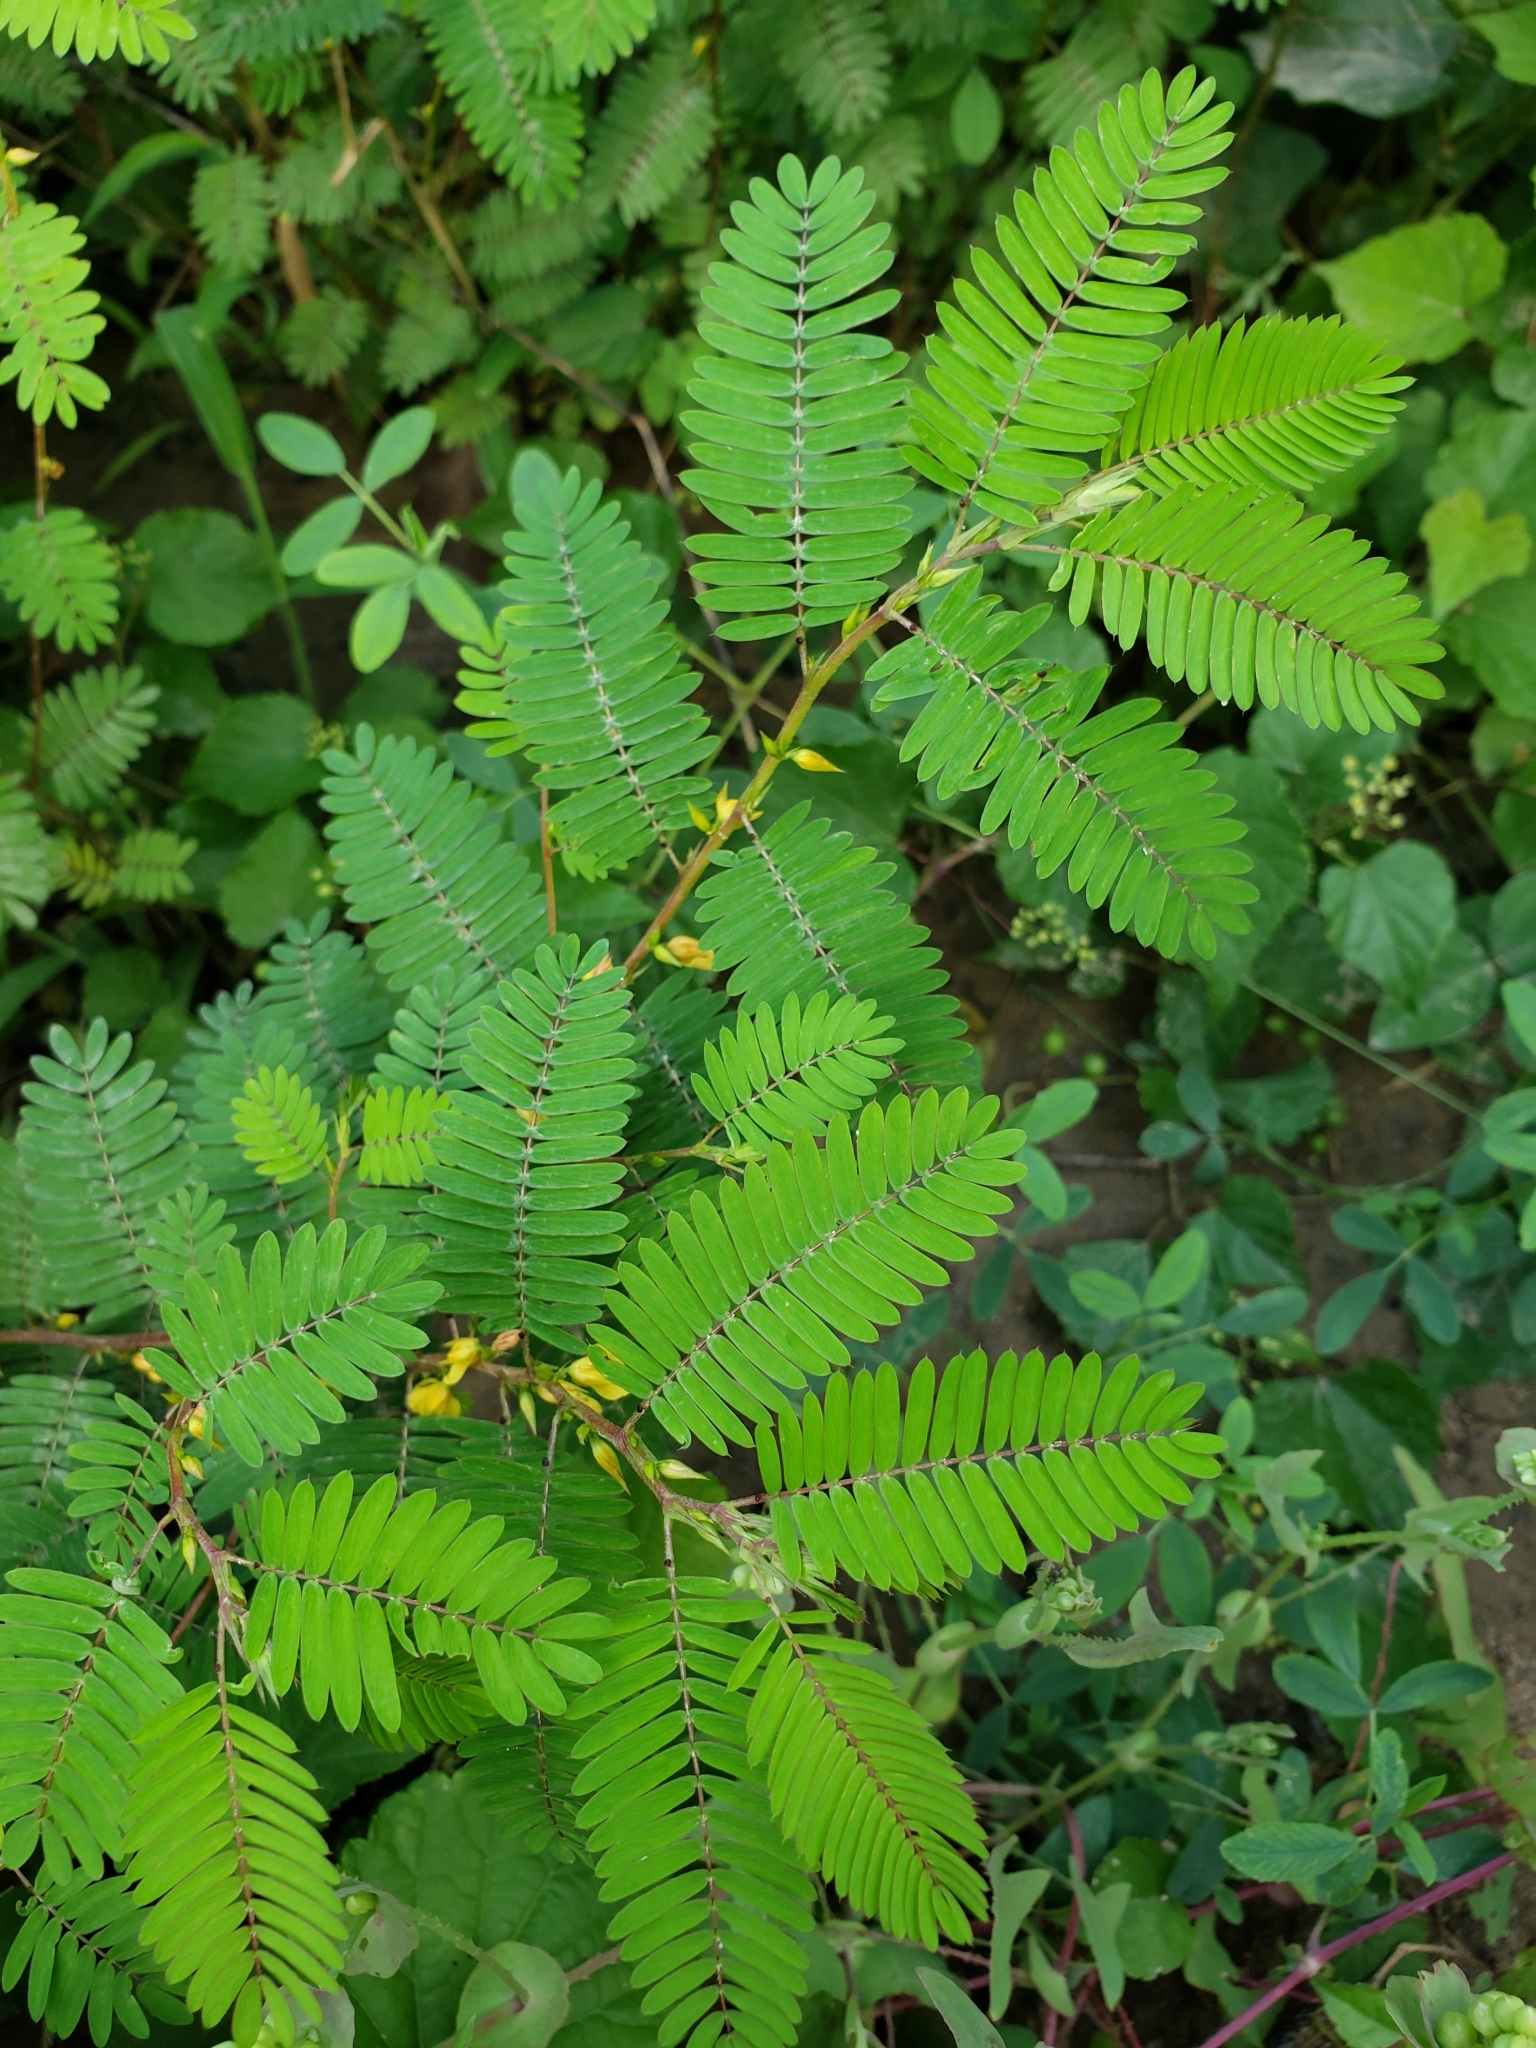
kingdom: Plantae
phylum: Tracheophyta
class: Magnoliopsida
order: Fabales
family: Fabaceae
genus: Chamaecrista
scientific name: Chamaecrista nictitans
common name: Sensitive cassia
